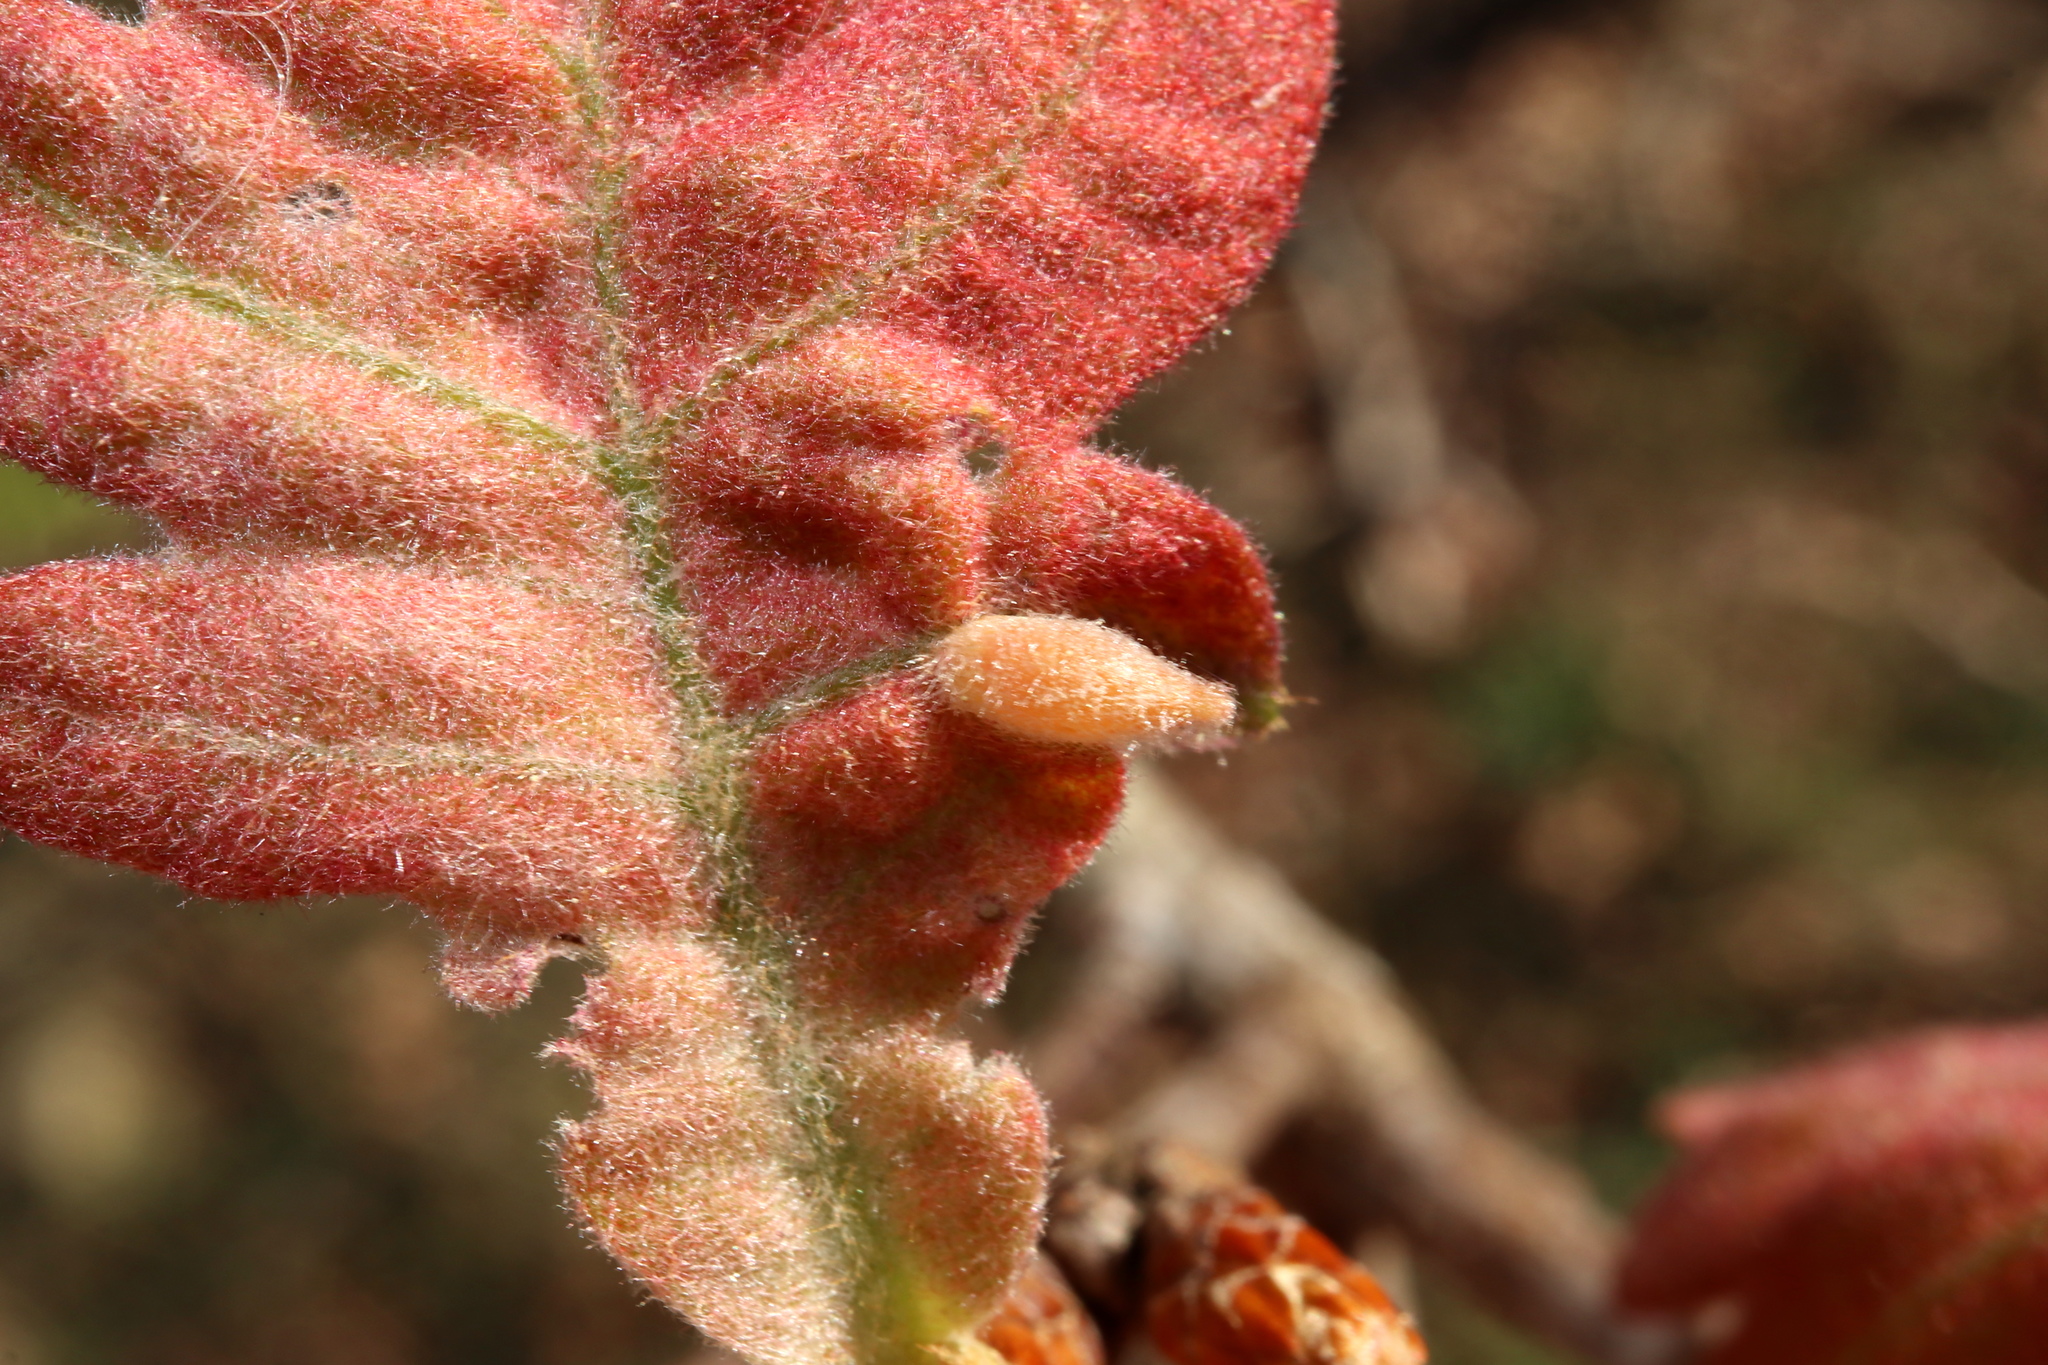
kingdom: Animalia
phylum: Arthropoda
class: Insecta
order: Hymenoptera
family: Cynipidae
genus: Andricus
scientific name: Andricus
